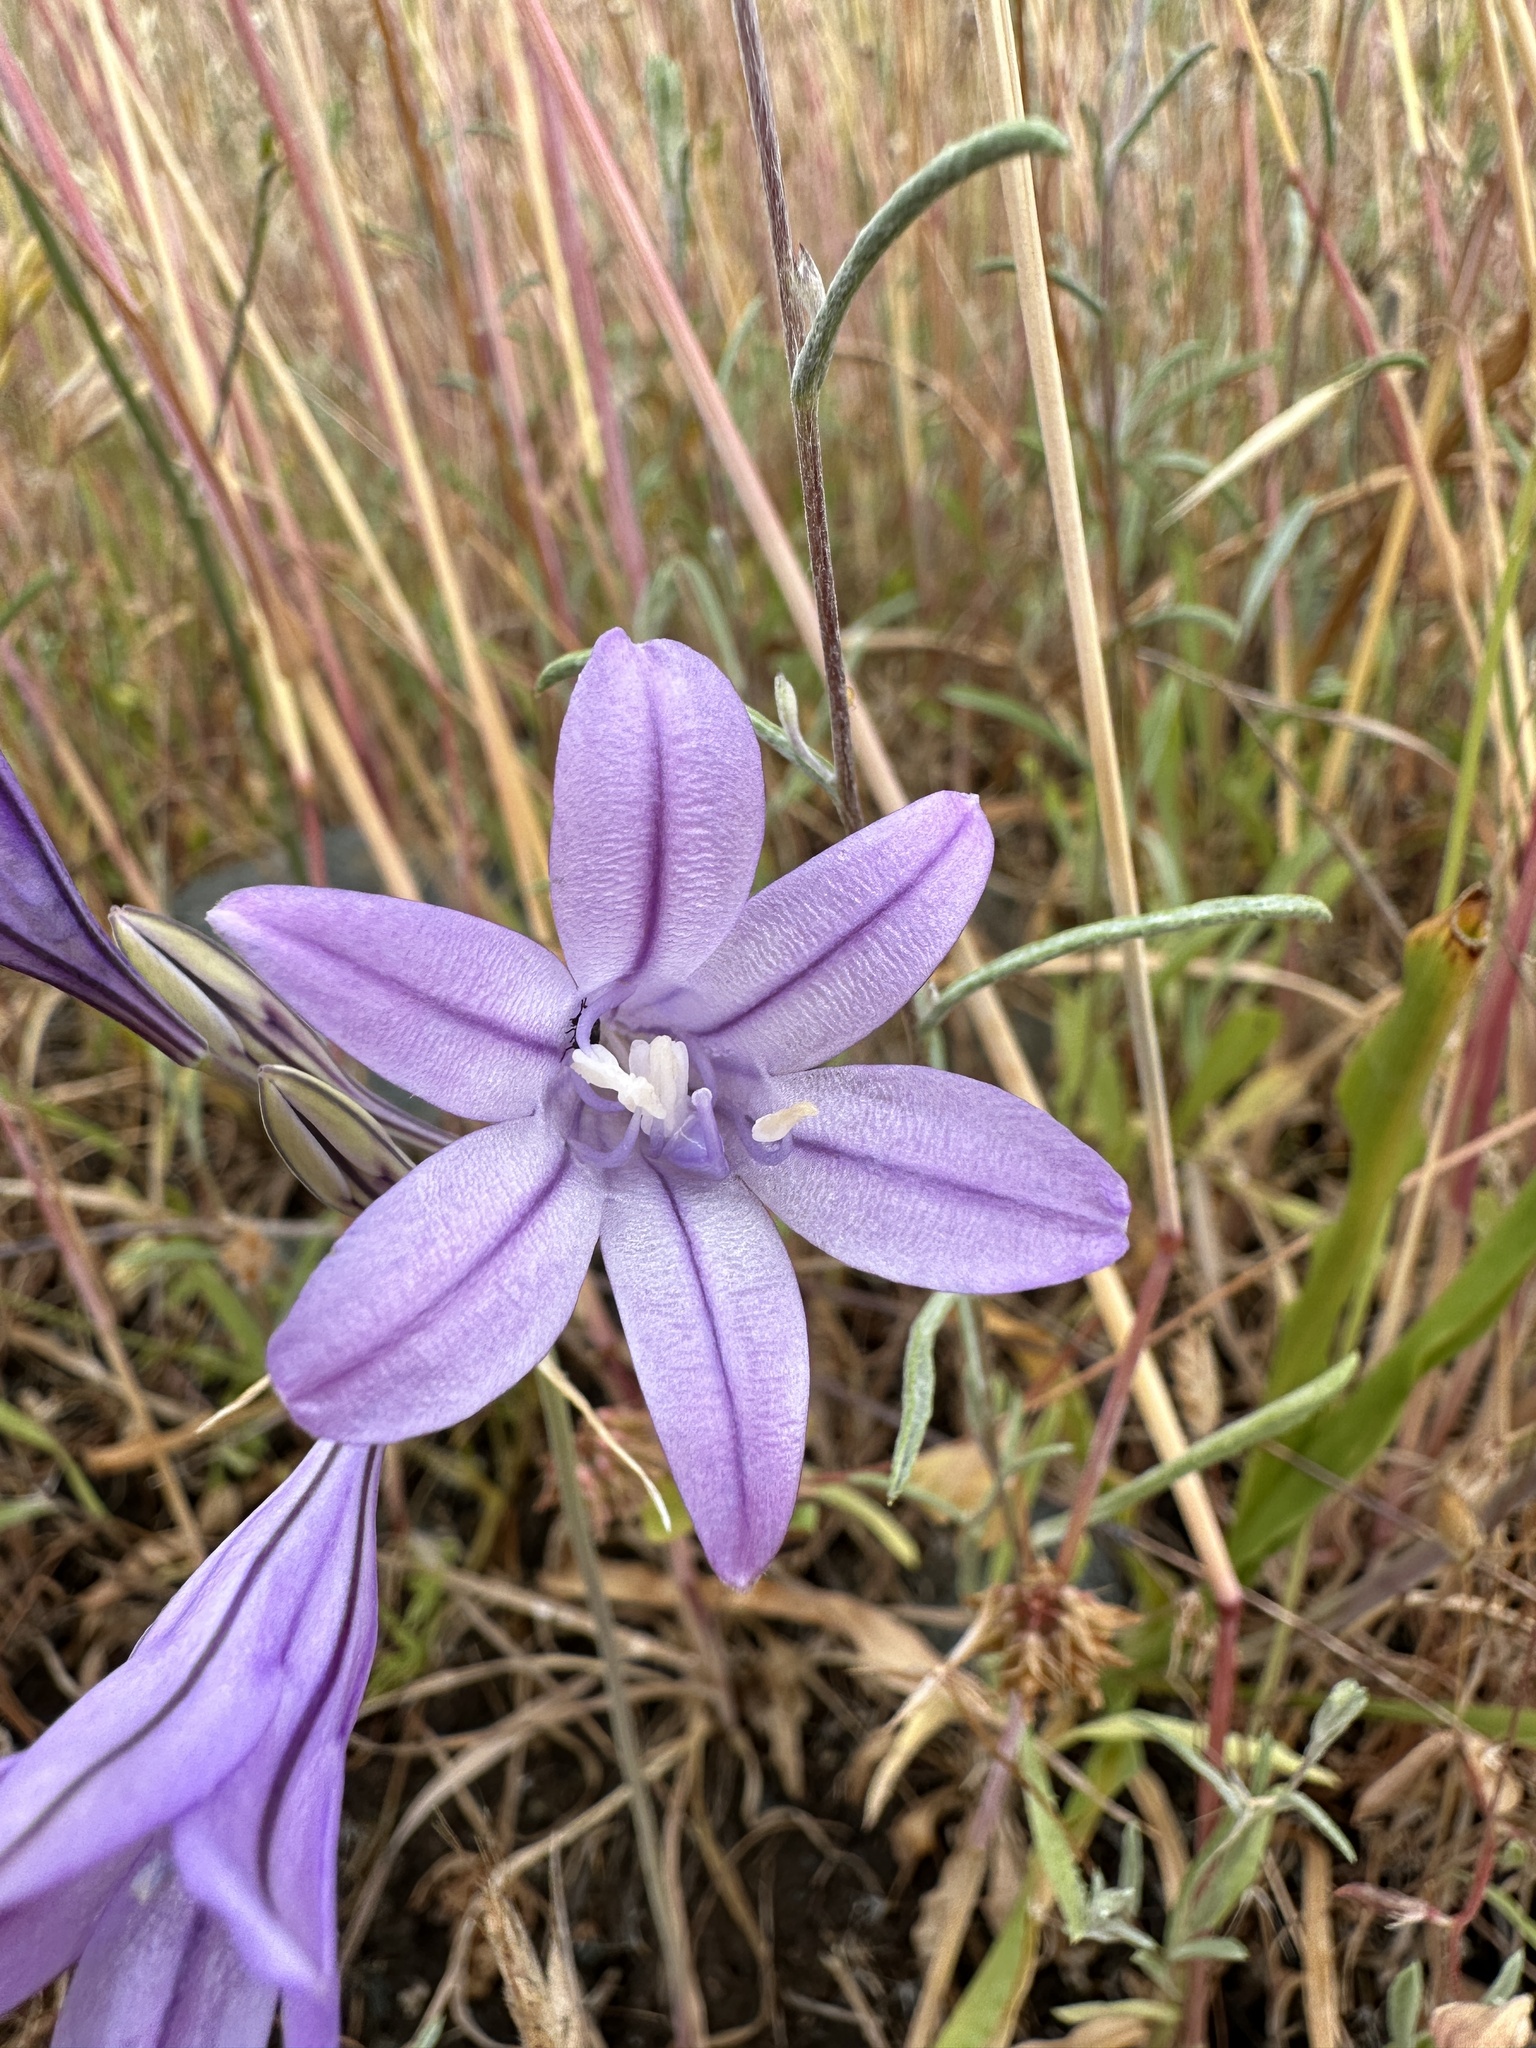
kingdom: Plantae
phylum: Tracheophyta
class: Liliopsida
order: Asparagales
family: Asparagaceae
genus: Triteleia
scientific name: Triteleia laxa
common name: Triplet-lily
